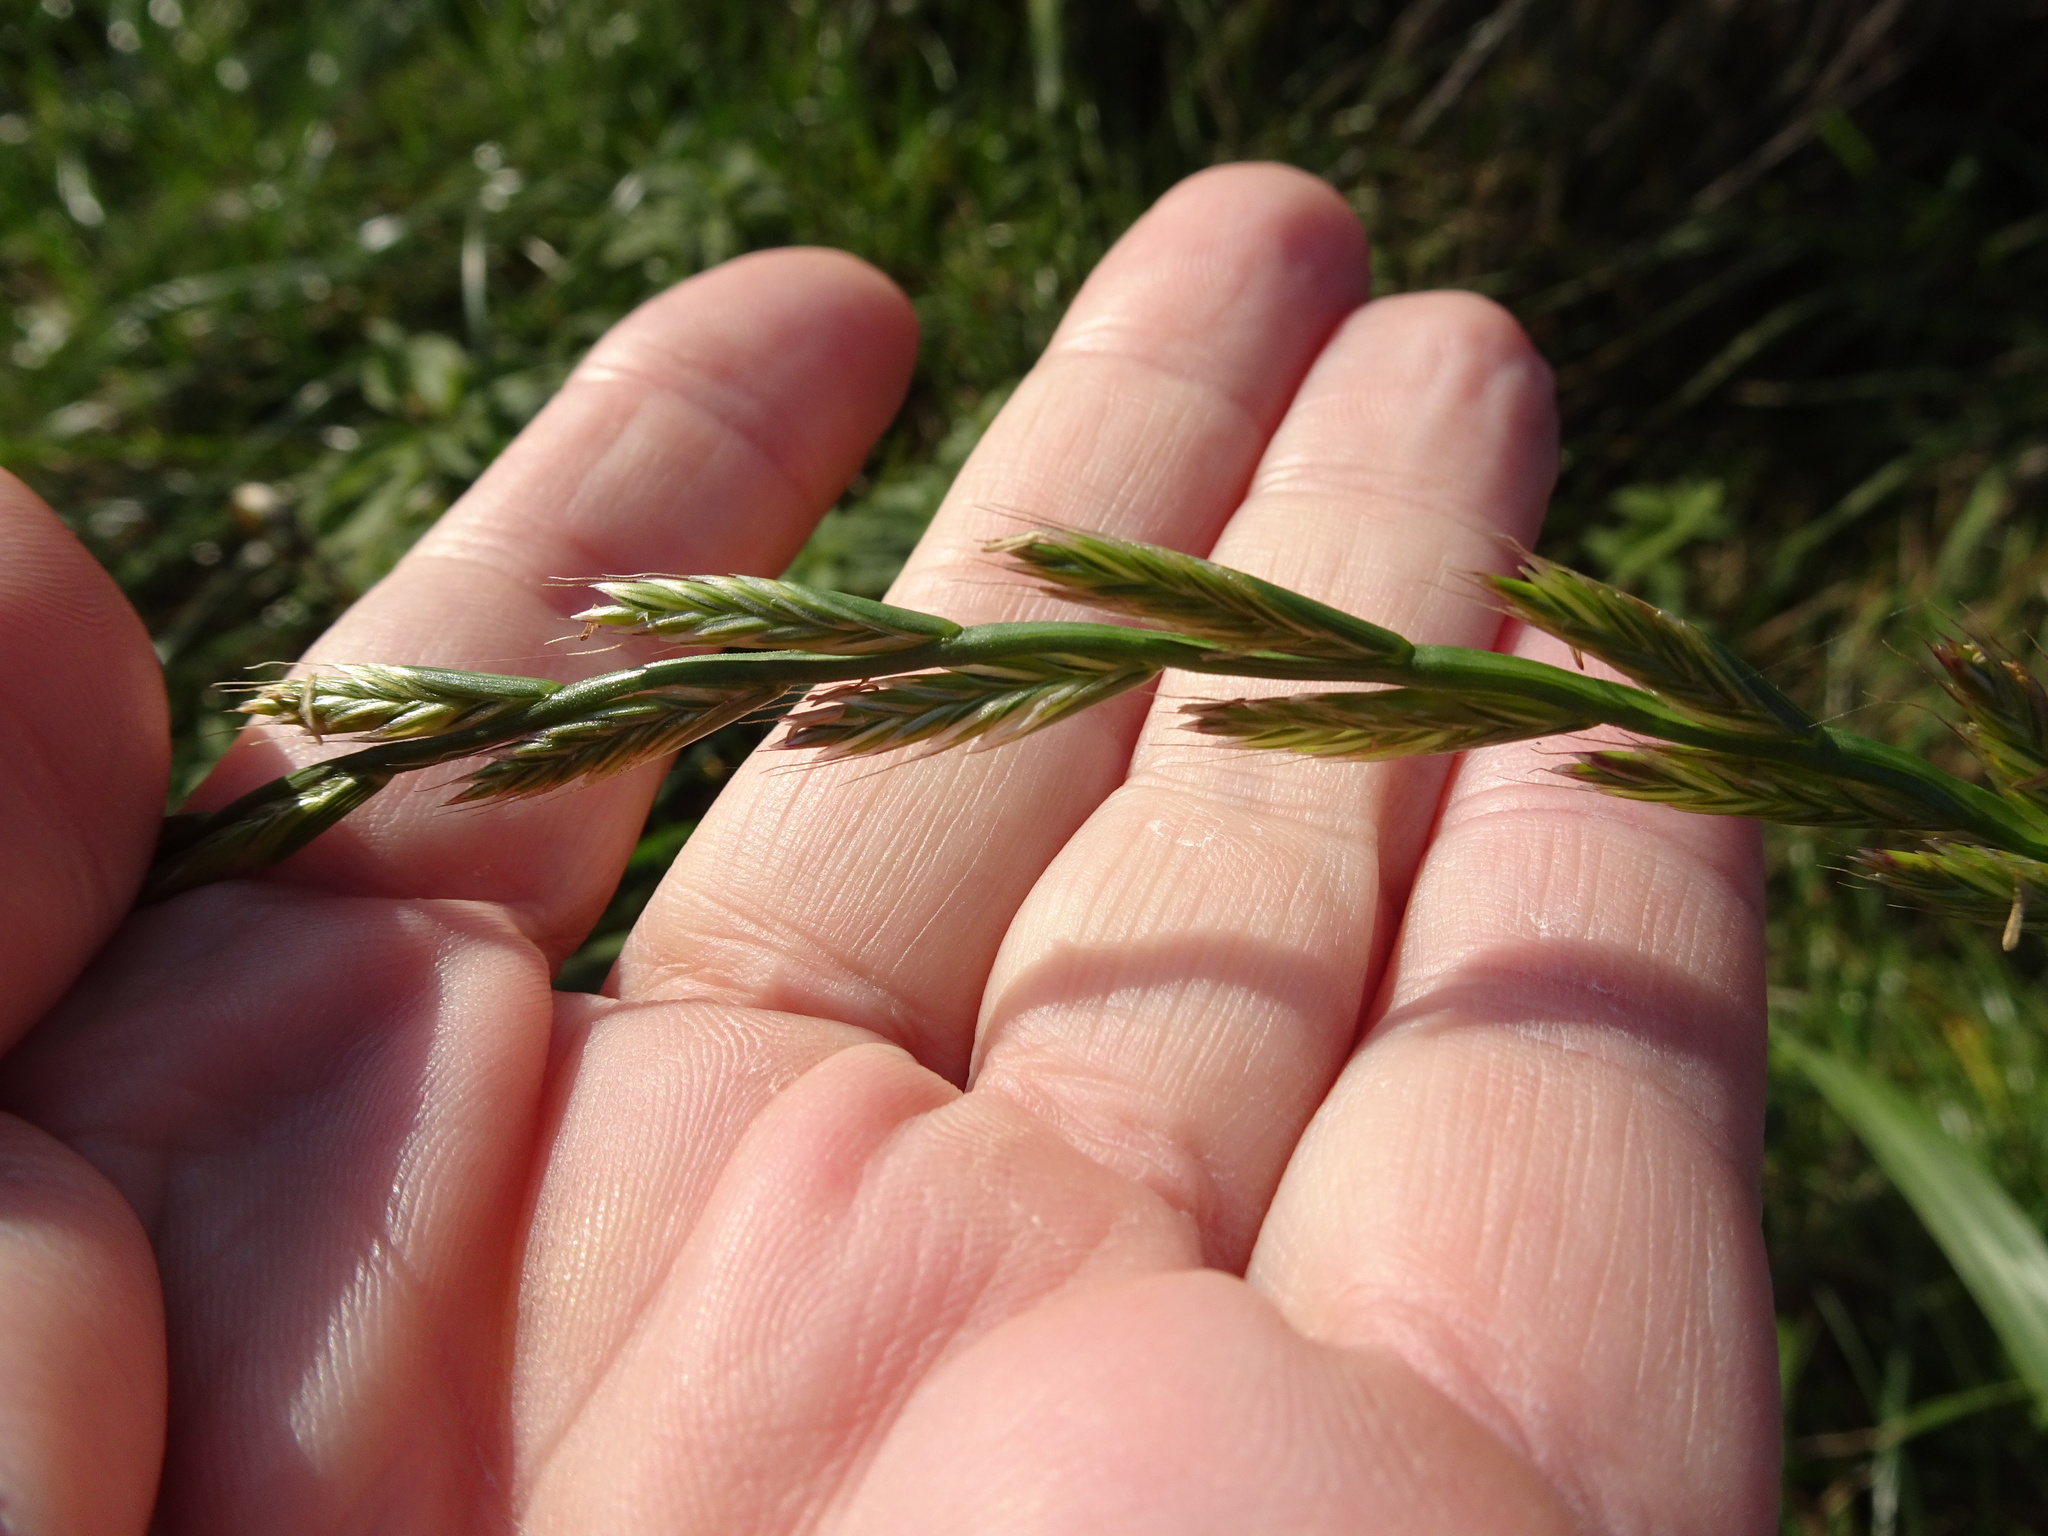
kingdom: Plantae
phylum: Tracheophyta
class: Liliopsida
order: Poales
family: Poaceae
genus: Lolium
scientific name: Lolium multiflorum
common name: Annual ryegrass
